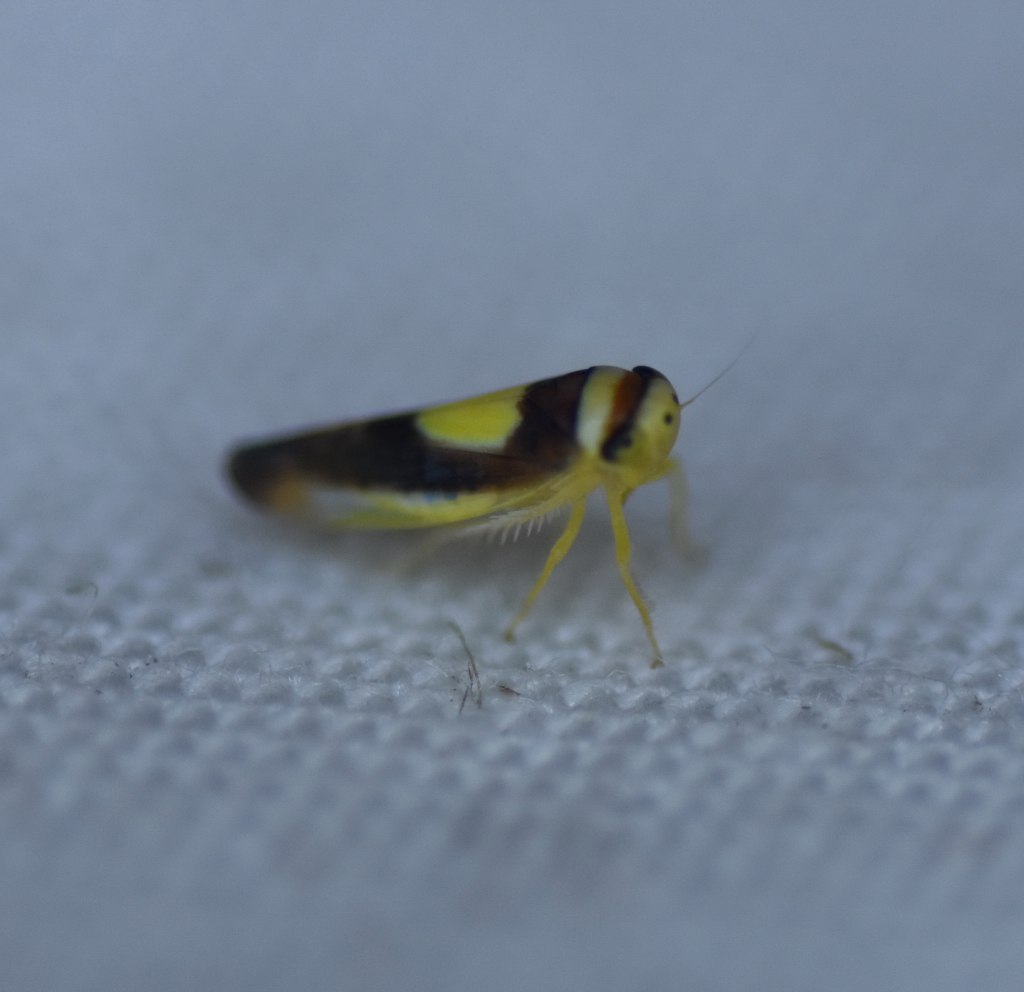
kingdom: Animalia
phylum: Arthropoda
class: Insecta
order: Hemiptera
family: Cicadellidae
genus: Colladonus
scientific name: Colladonus clitellarius
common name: The saddleback leafhopper
